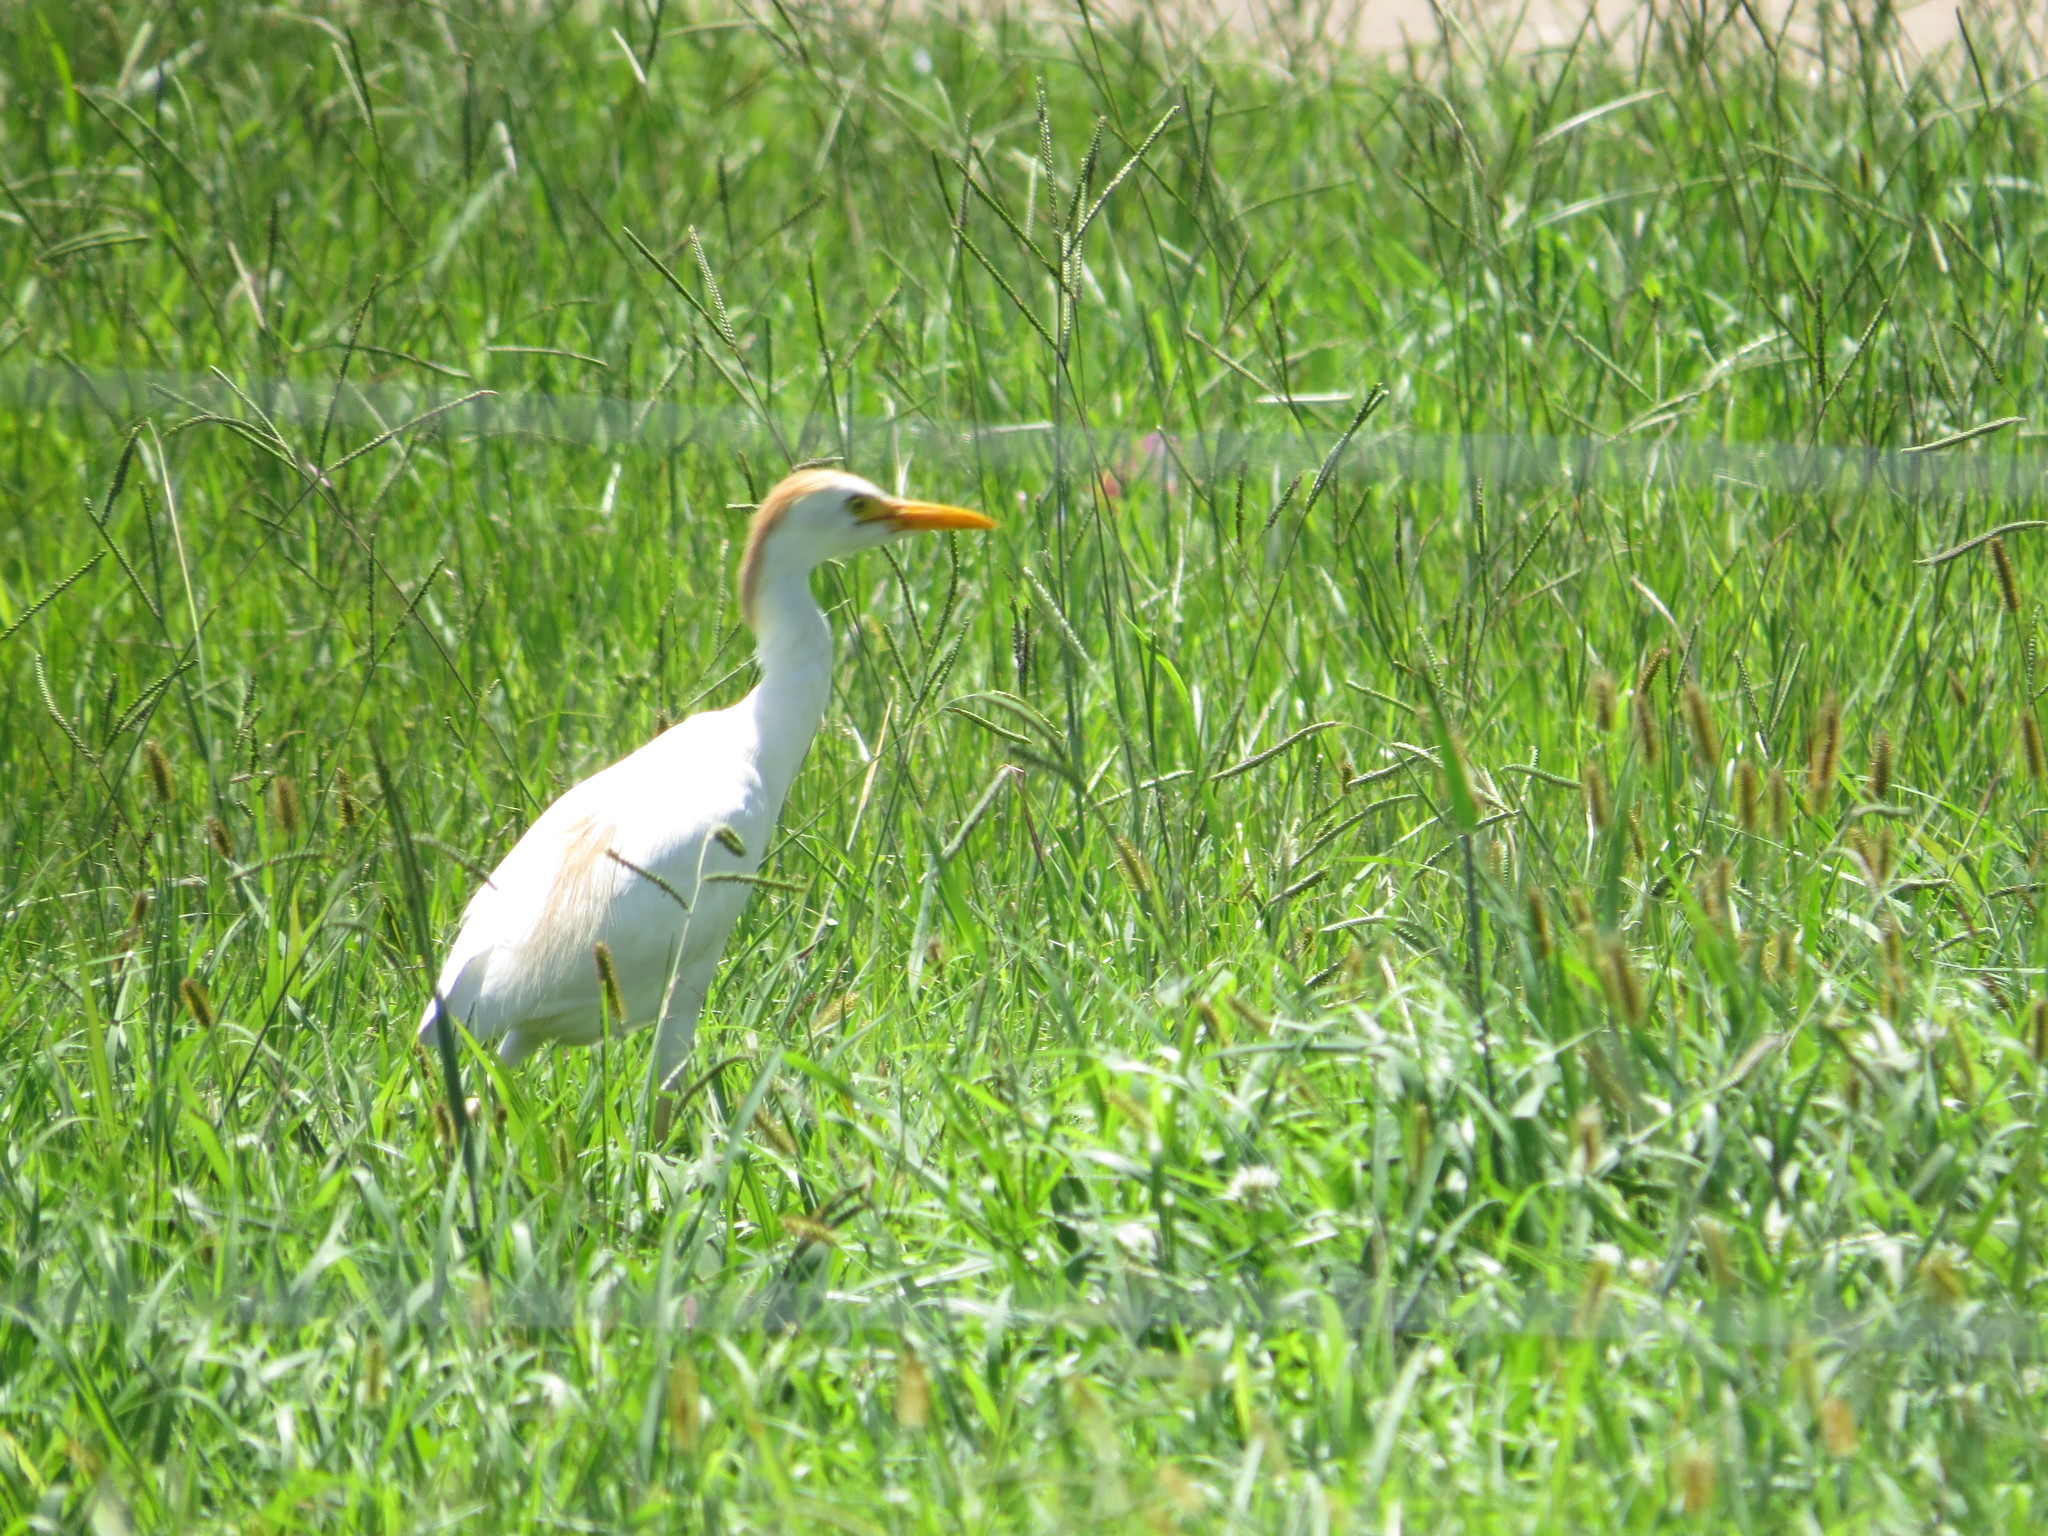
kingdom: Animalia
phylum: Chordata
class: Aves
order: Pelecaniformes
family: Ardeidae
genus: Bubulcus
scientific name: Bubulcus ibis
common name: Cattle egret
